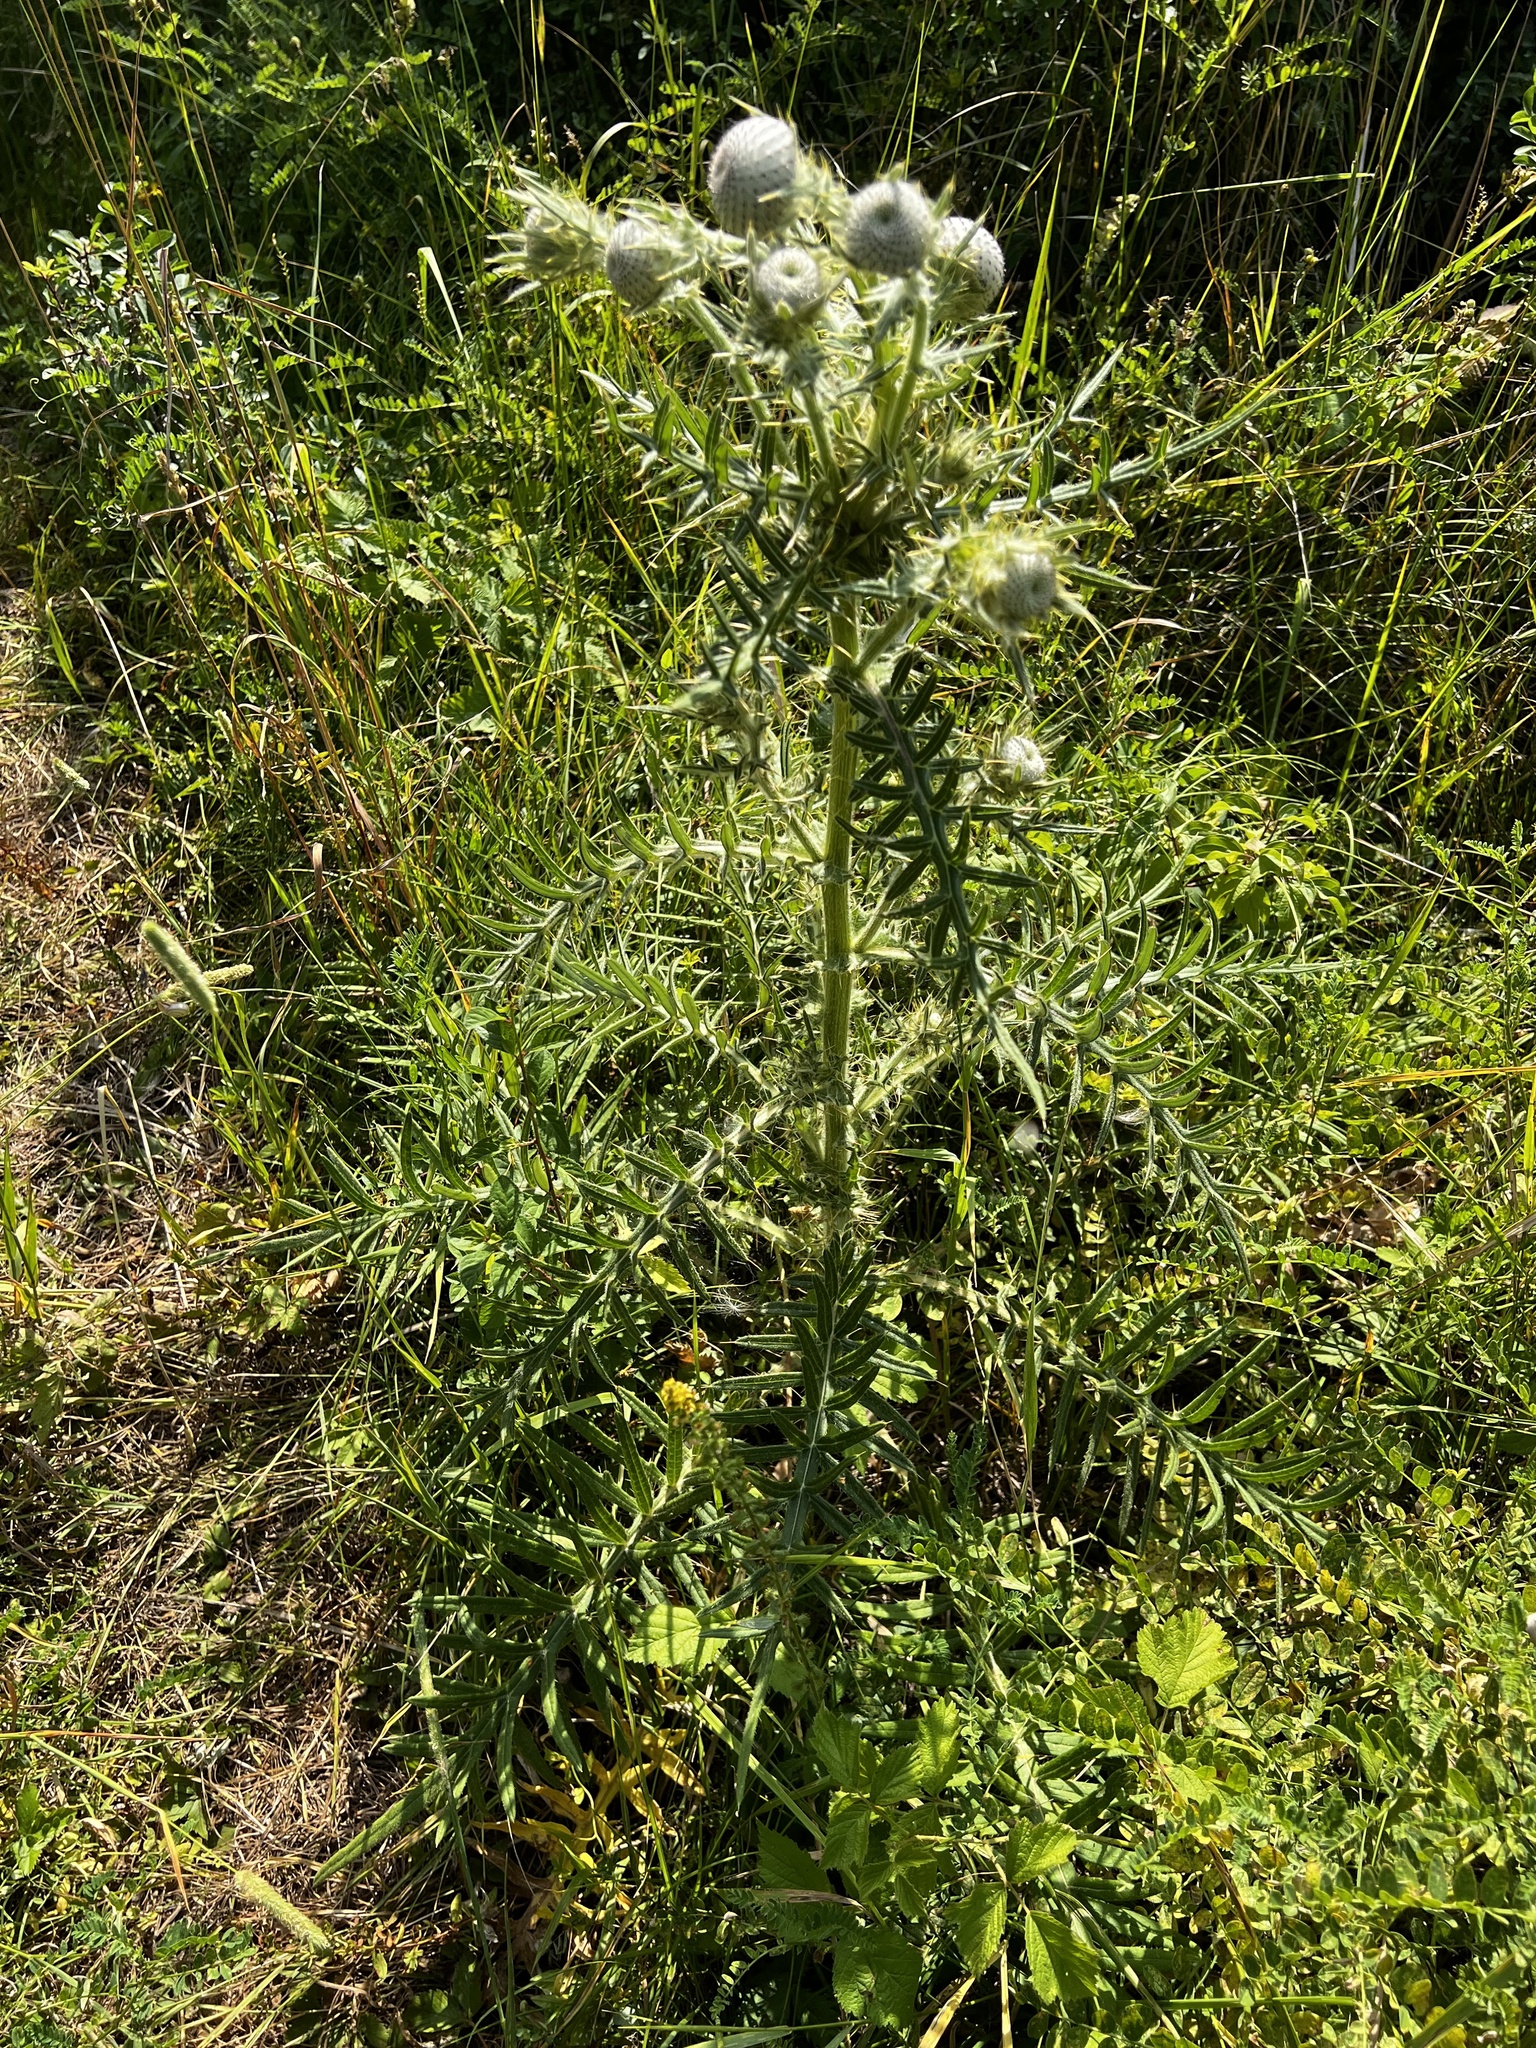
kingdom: Plantae
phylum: Tracheophyta
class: Magnoliopsida
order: Asterales
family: Asteraceae
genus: Lophiolepis
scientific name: Lophiolepis eriophora
